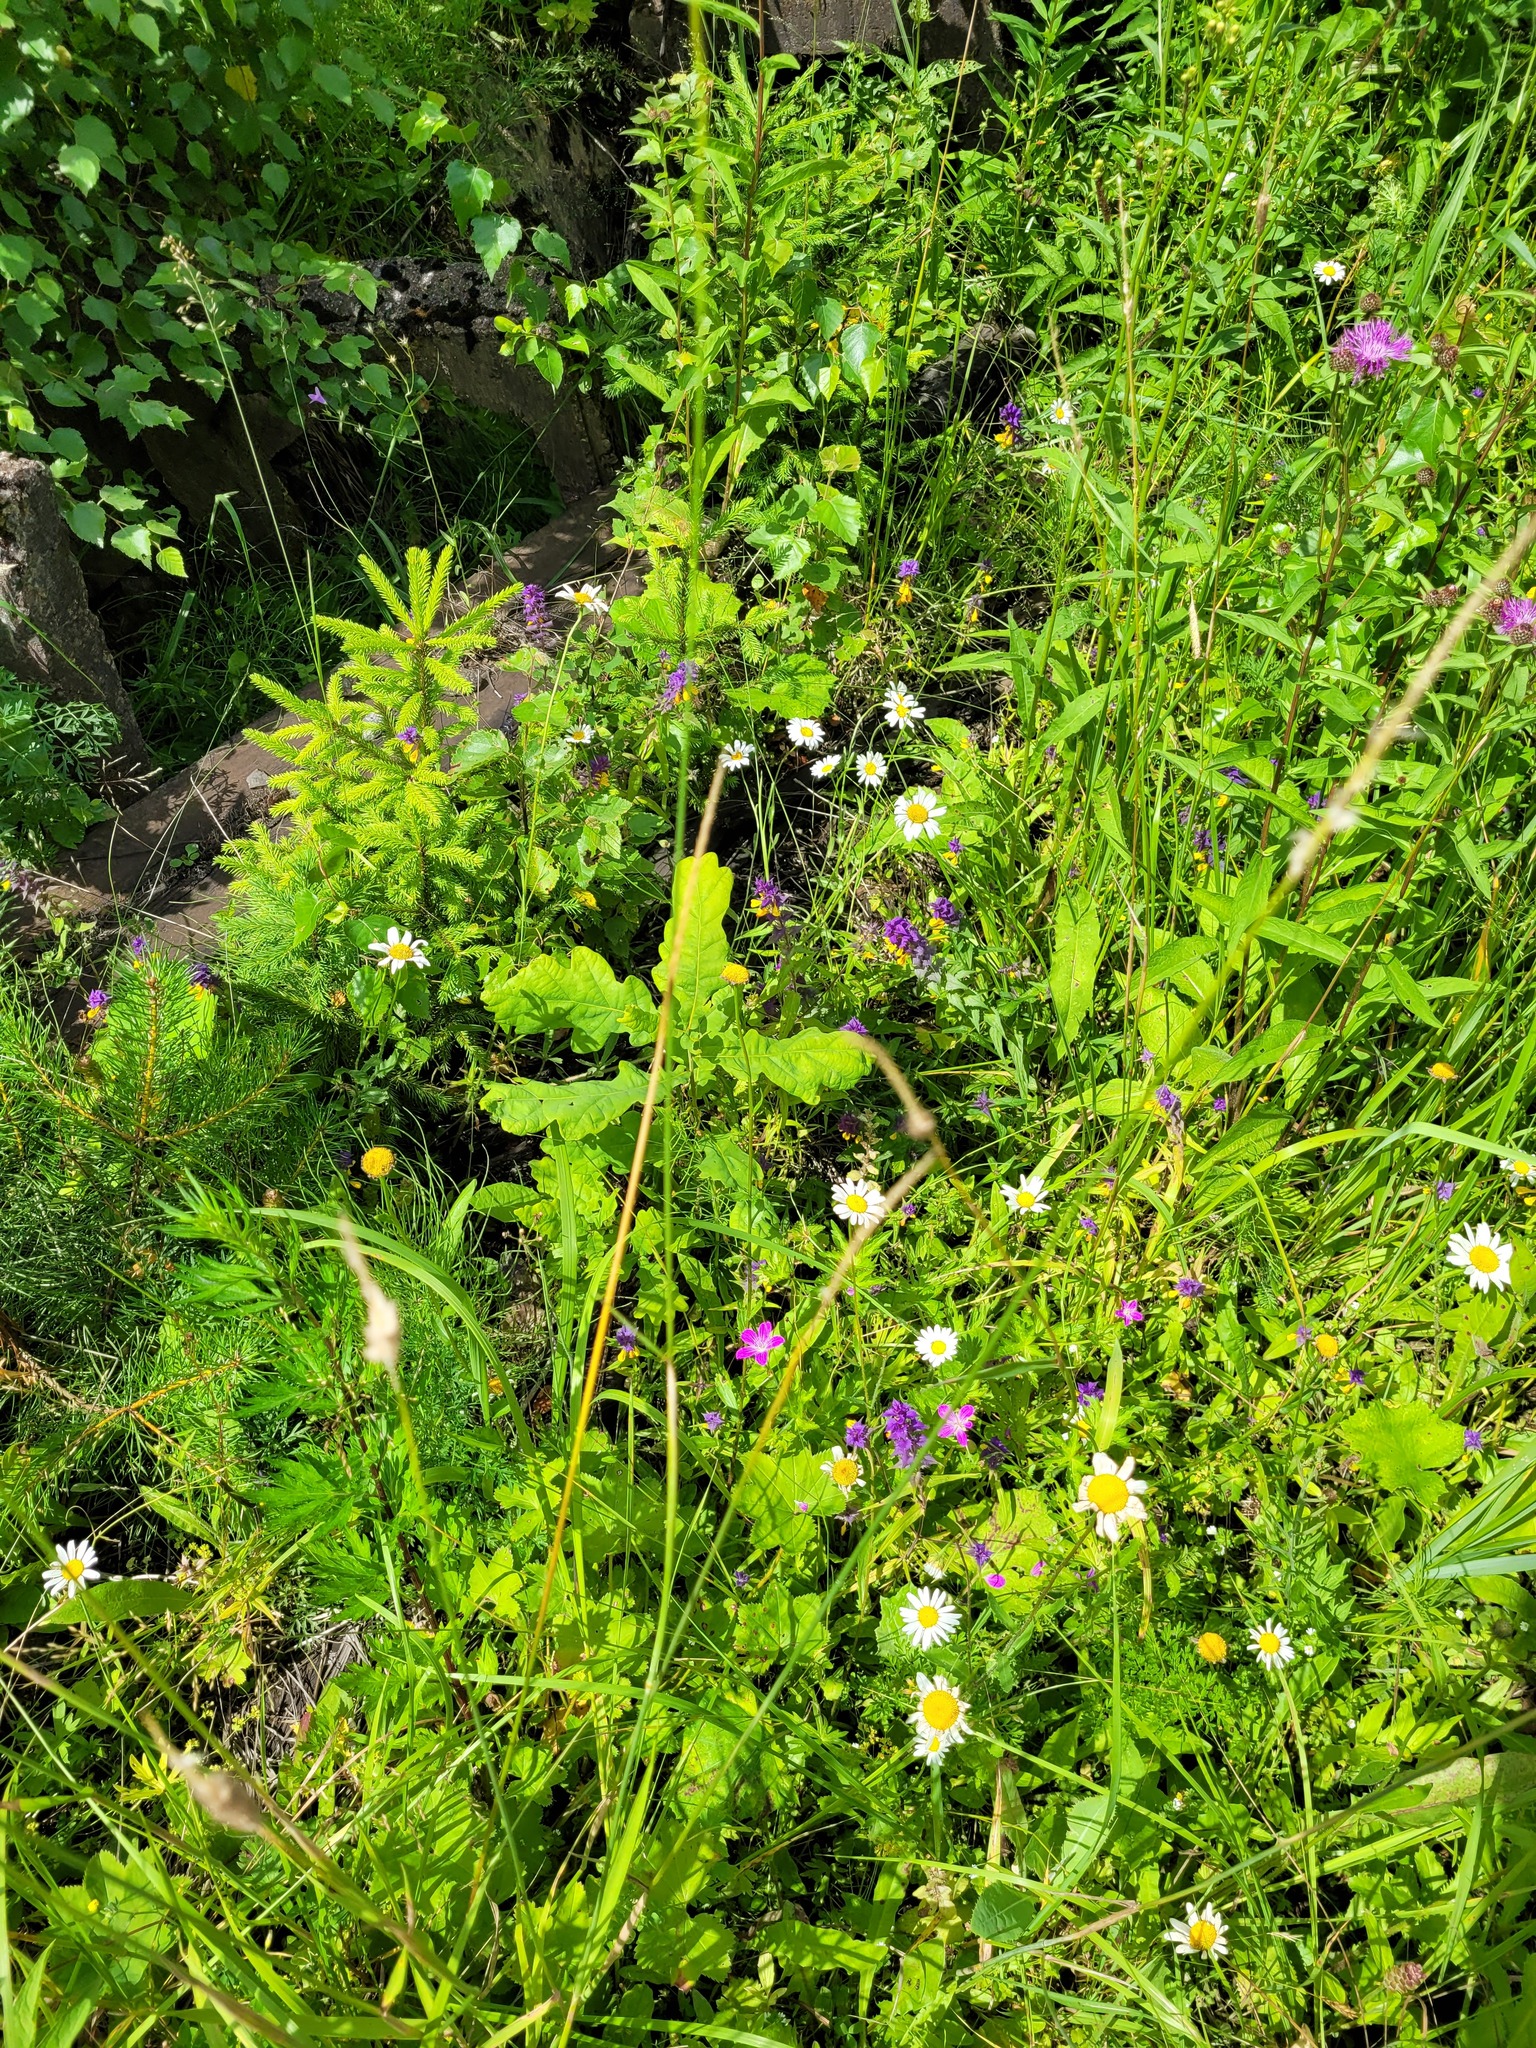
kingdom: Plantae
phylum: Tracheophyta
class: Magnoliopsida
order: Fagales
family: Fagaceae
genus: Quercus
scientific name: Quercus robur
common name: Pedunculate oak
